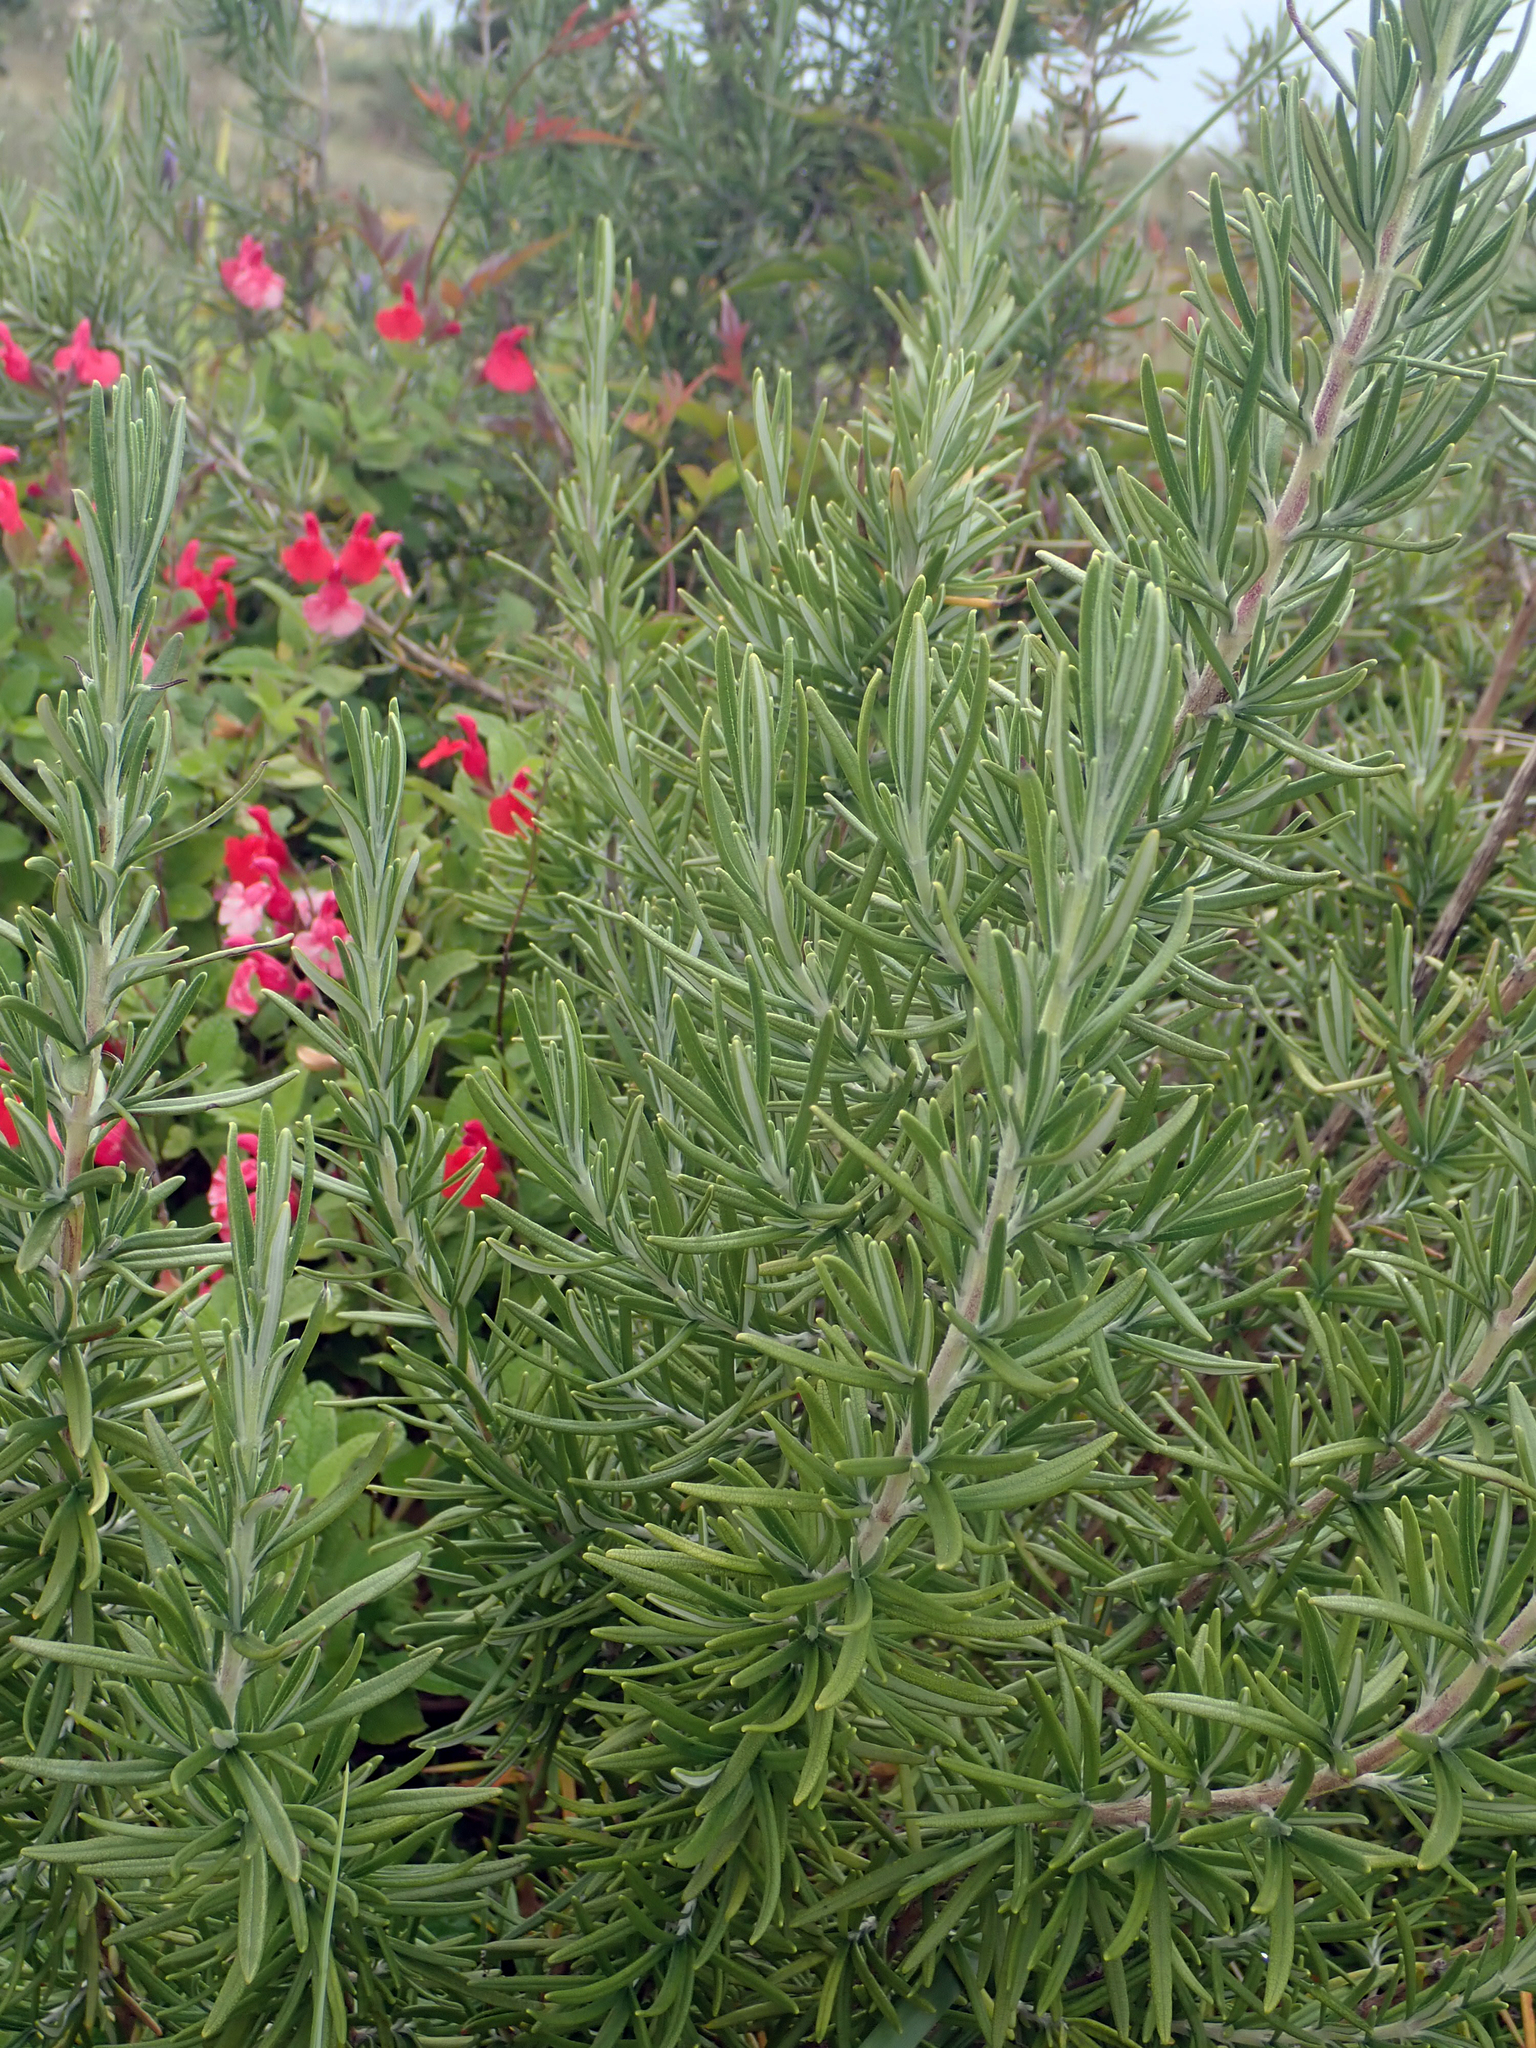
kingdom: Plantae
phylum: Tracheophyta
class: Magnoliopsida
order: Lamiales
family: Lamiaceae
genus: Salvia
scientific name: Salvia rosmarinus
